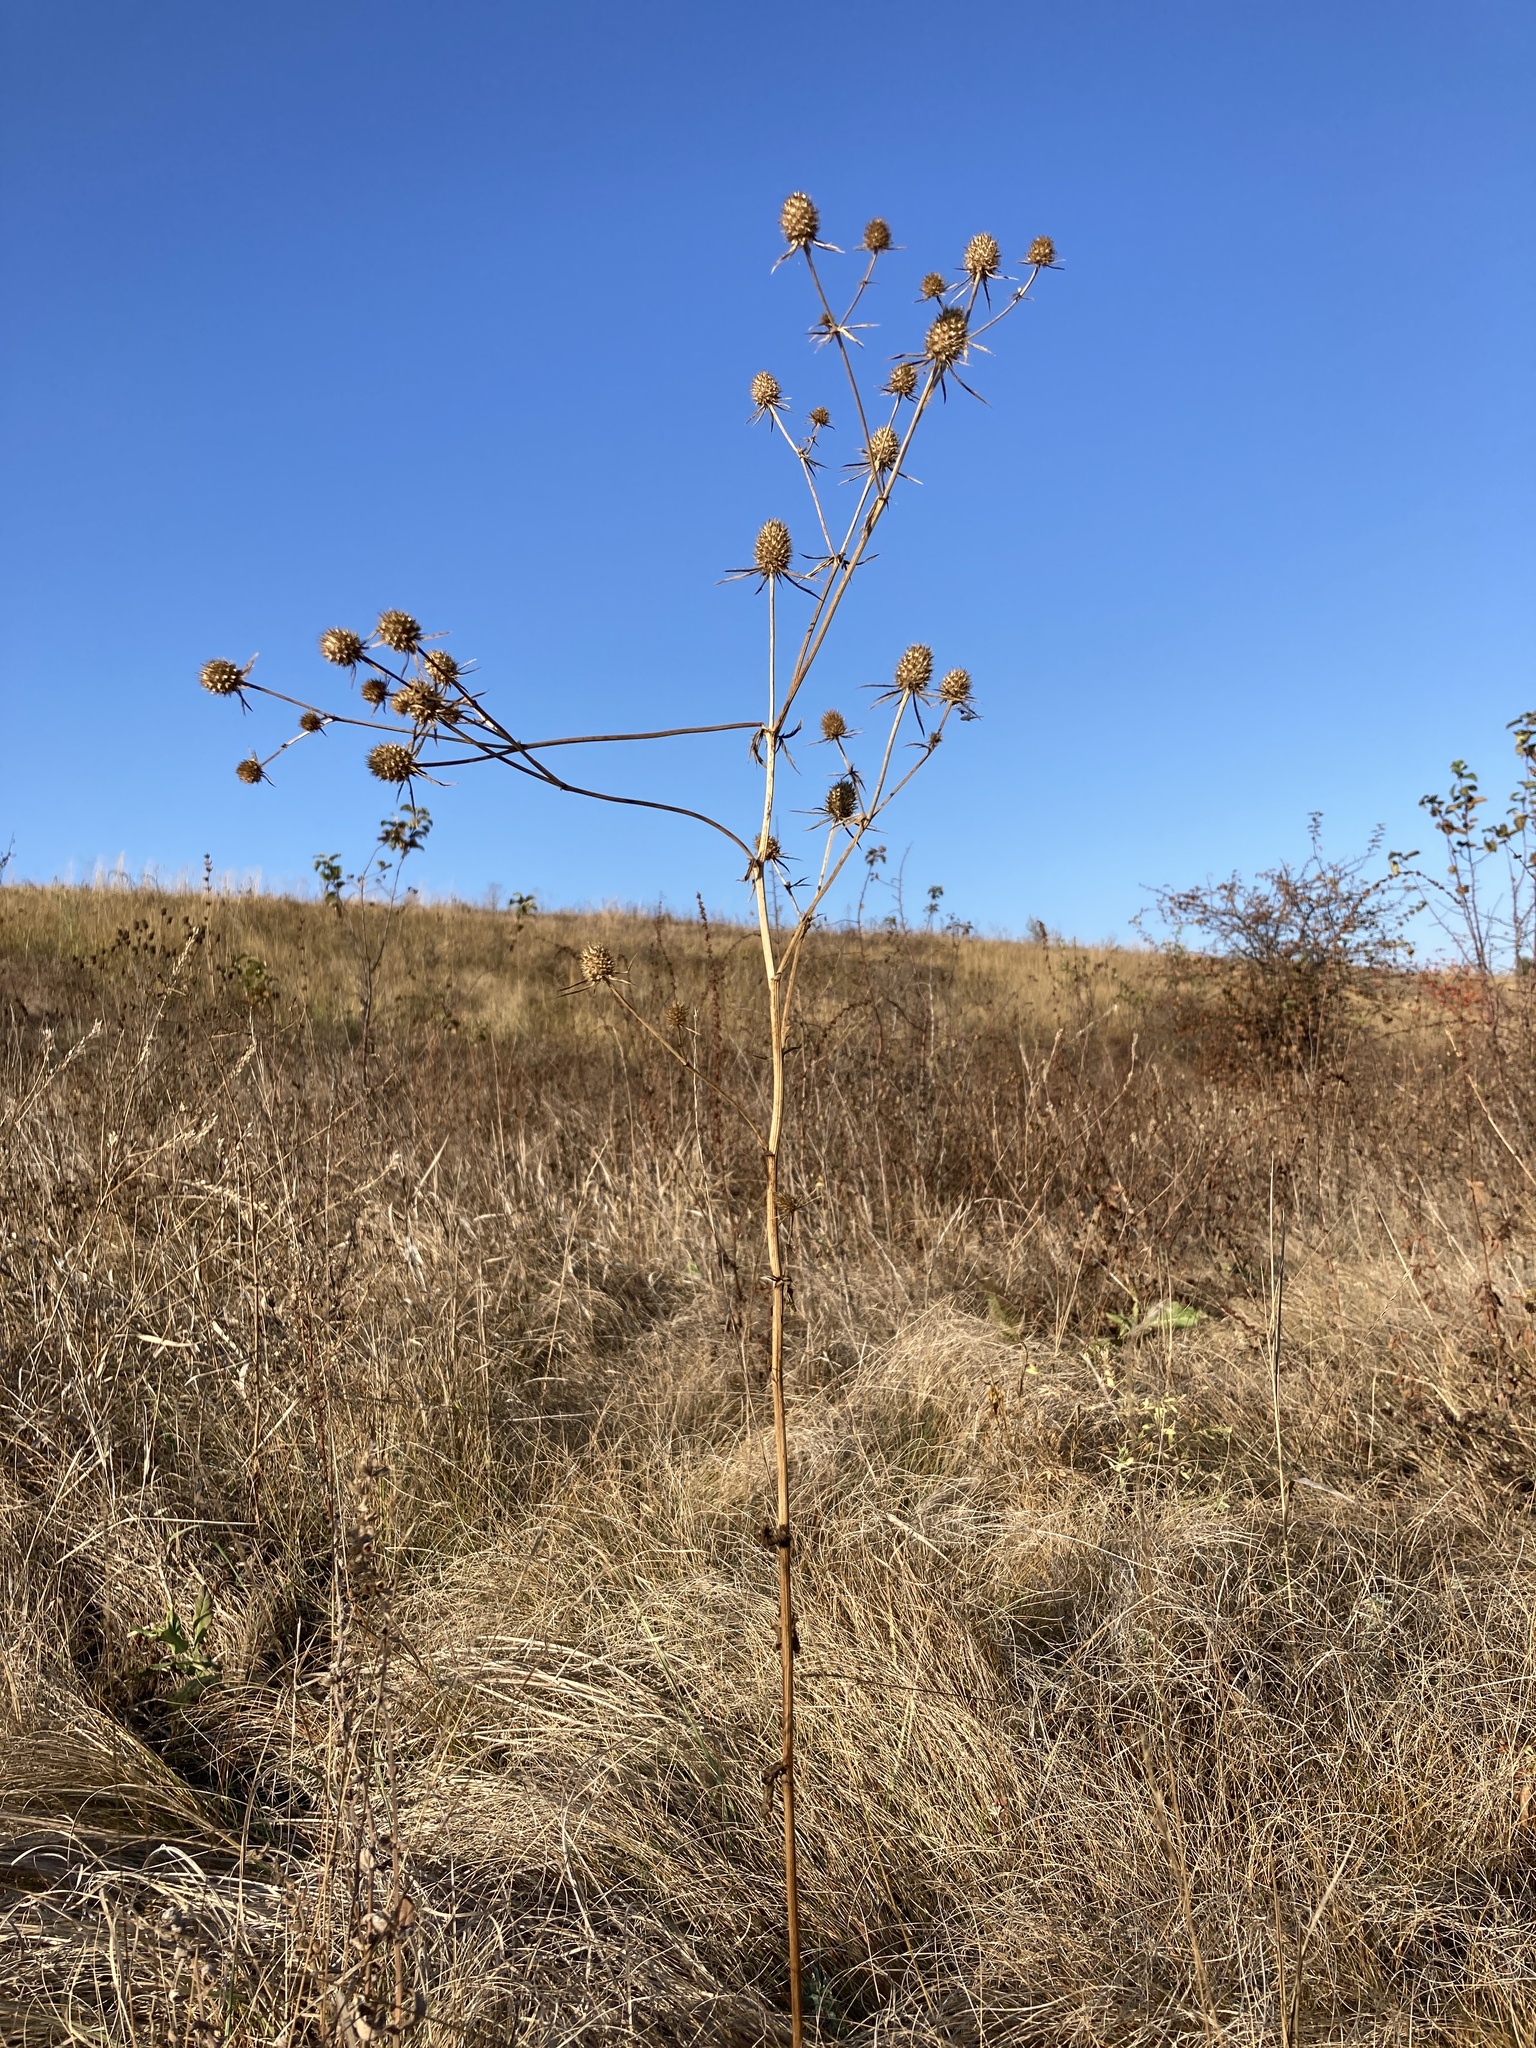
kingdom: Plantae
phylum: Tracheophyta
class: Magnoliopsida
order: Apiales
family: Apiaceae
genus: Eryngium
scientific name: Eryngium planum
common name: Blue eryngo
